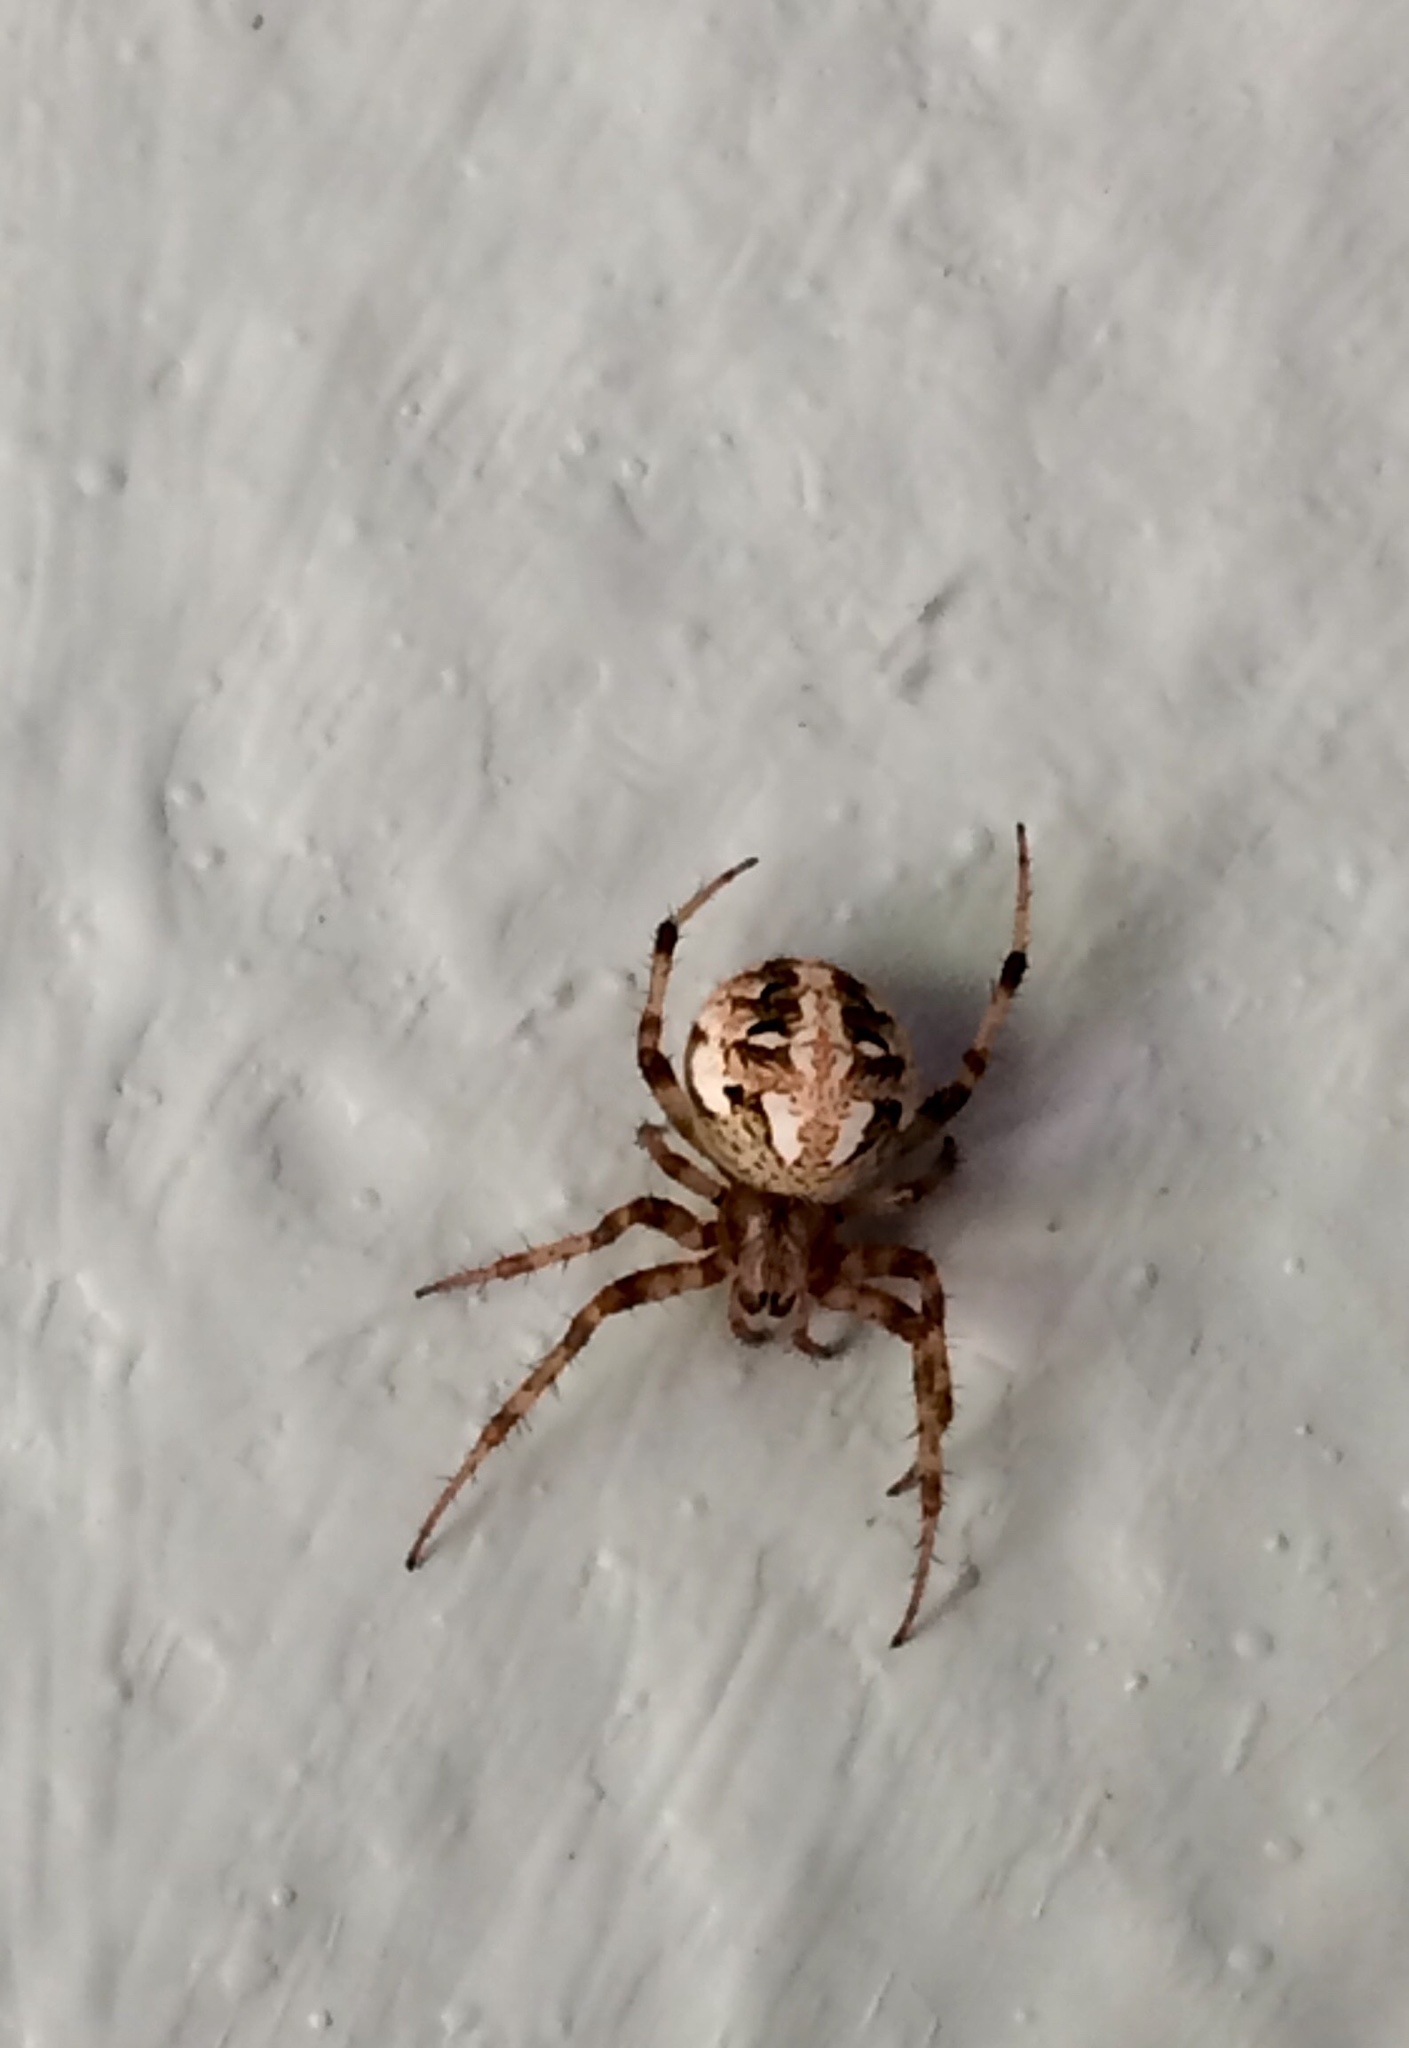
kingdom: Animalia
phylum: Arthropoda
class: Arachnida
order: Araneae
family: Araneidae
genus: Neoscona
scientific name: Neoscona arabesca
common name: Orb weavers
